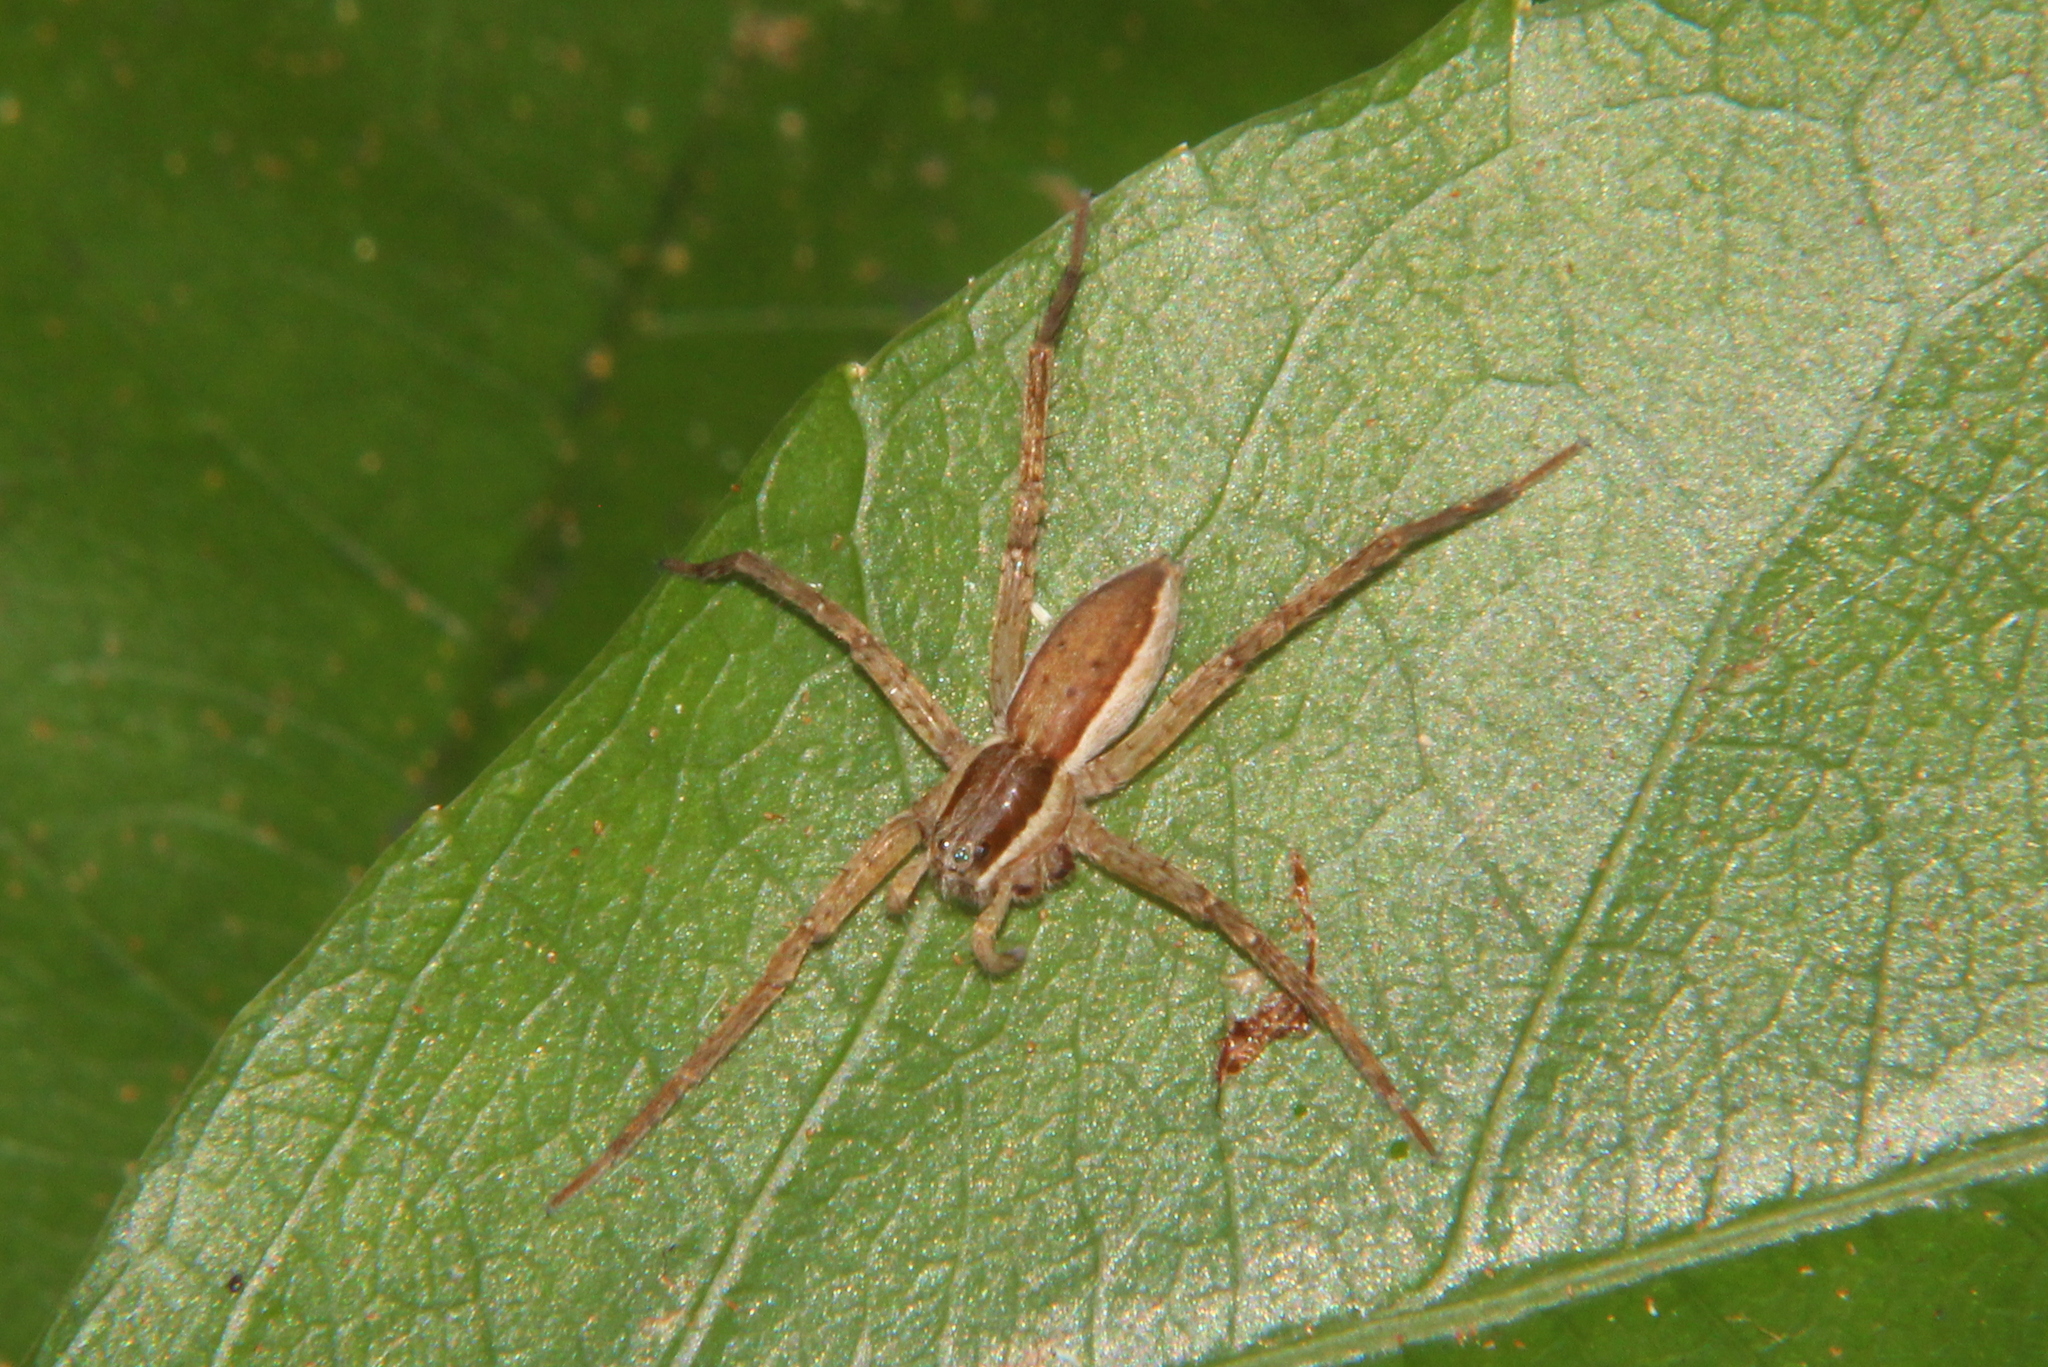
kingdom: Animalia
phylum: Arthropoda
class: Arachnida
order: Araneae
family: Pisauridae
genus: Dolomedes
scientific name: Dolomedes minor
